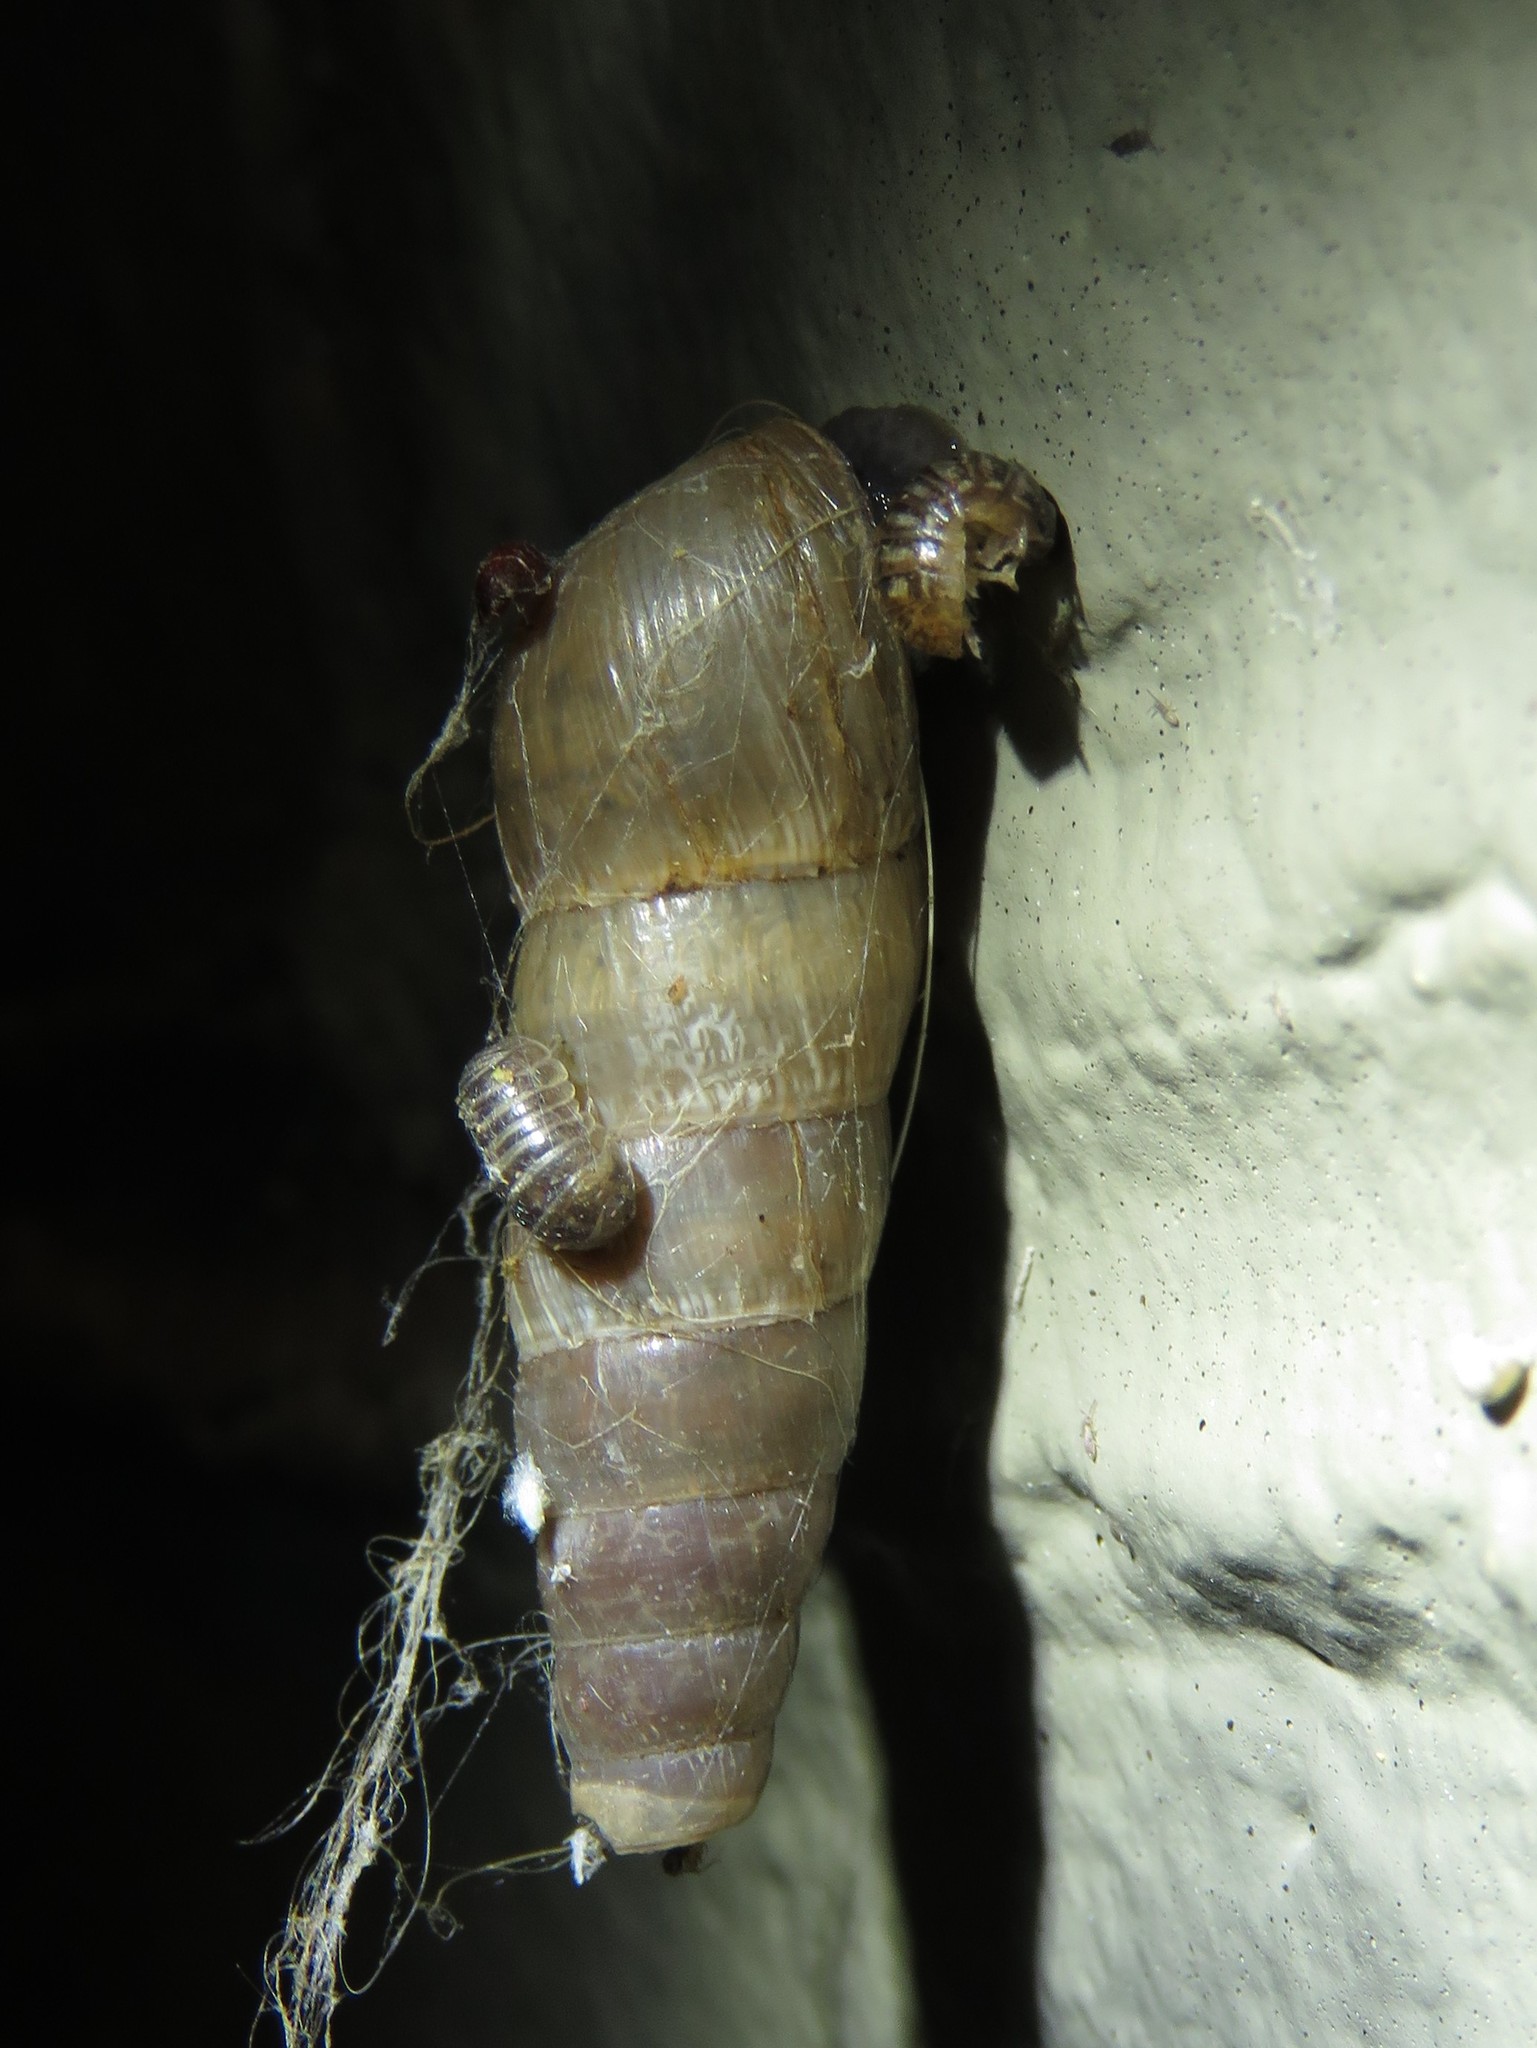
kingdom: Animalia
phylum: Mollusca
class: Gastropoda
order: Stylommatophora
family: Achatinidae
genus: Rumina
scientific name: Rumina decollata
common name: Decollate snail
